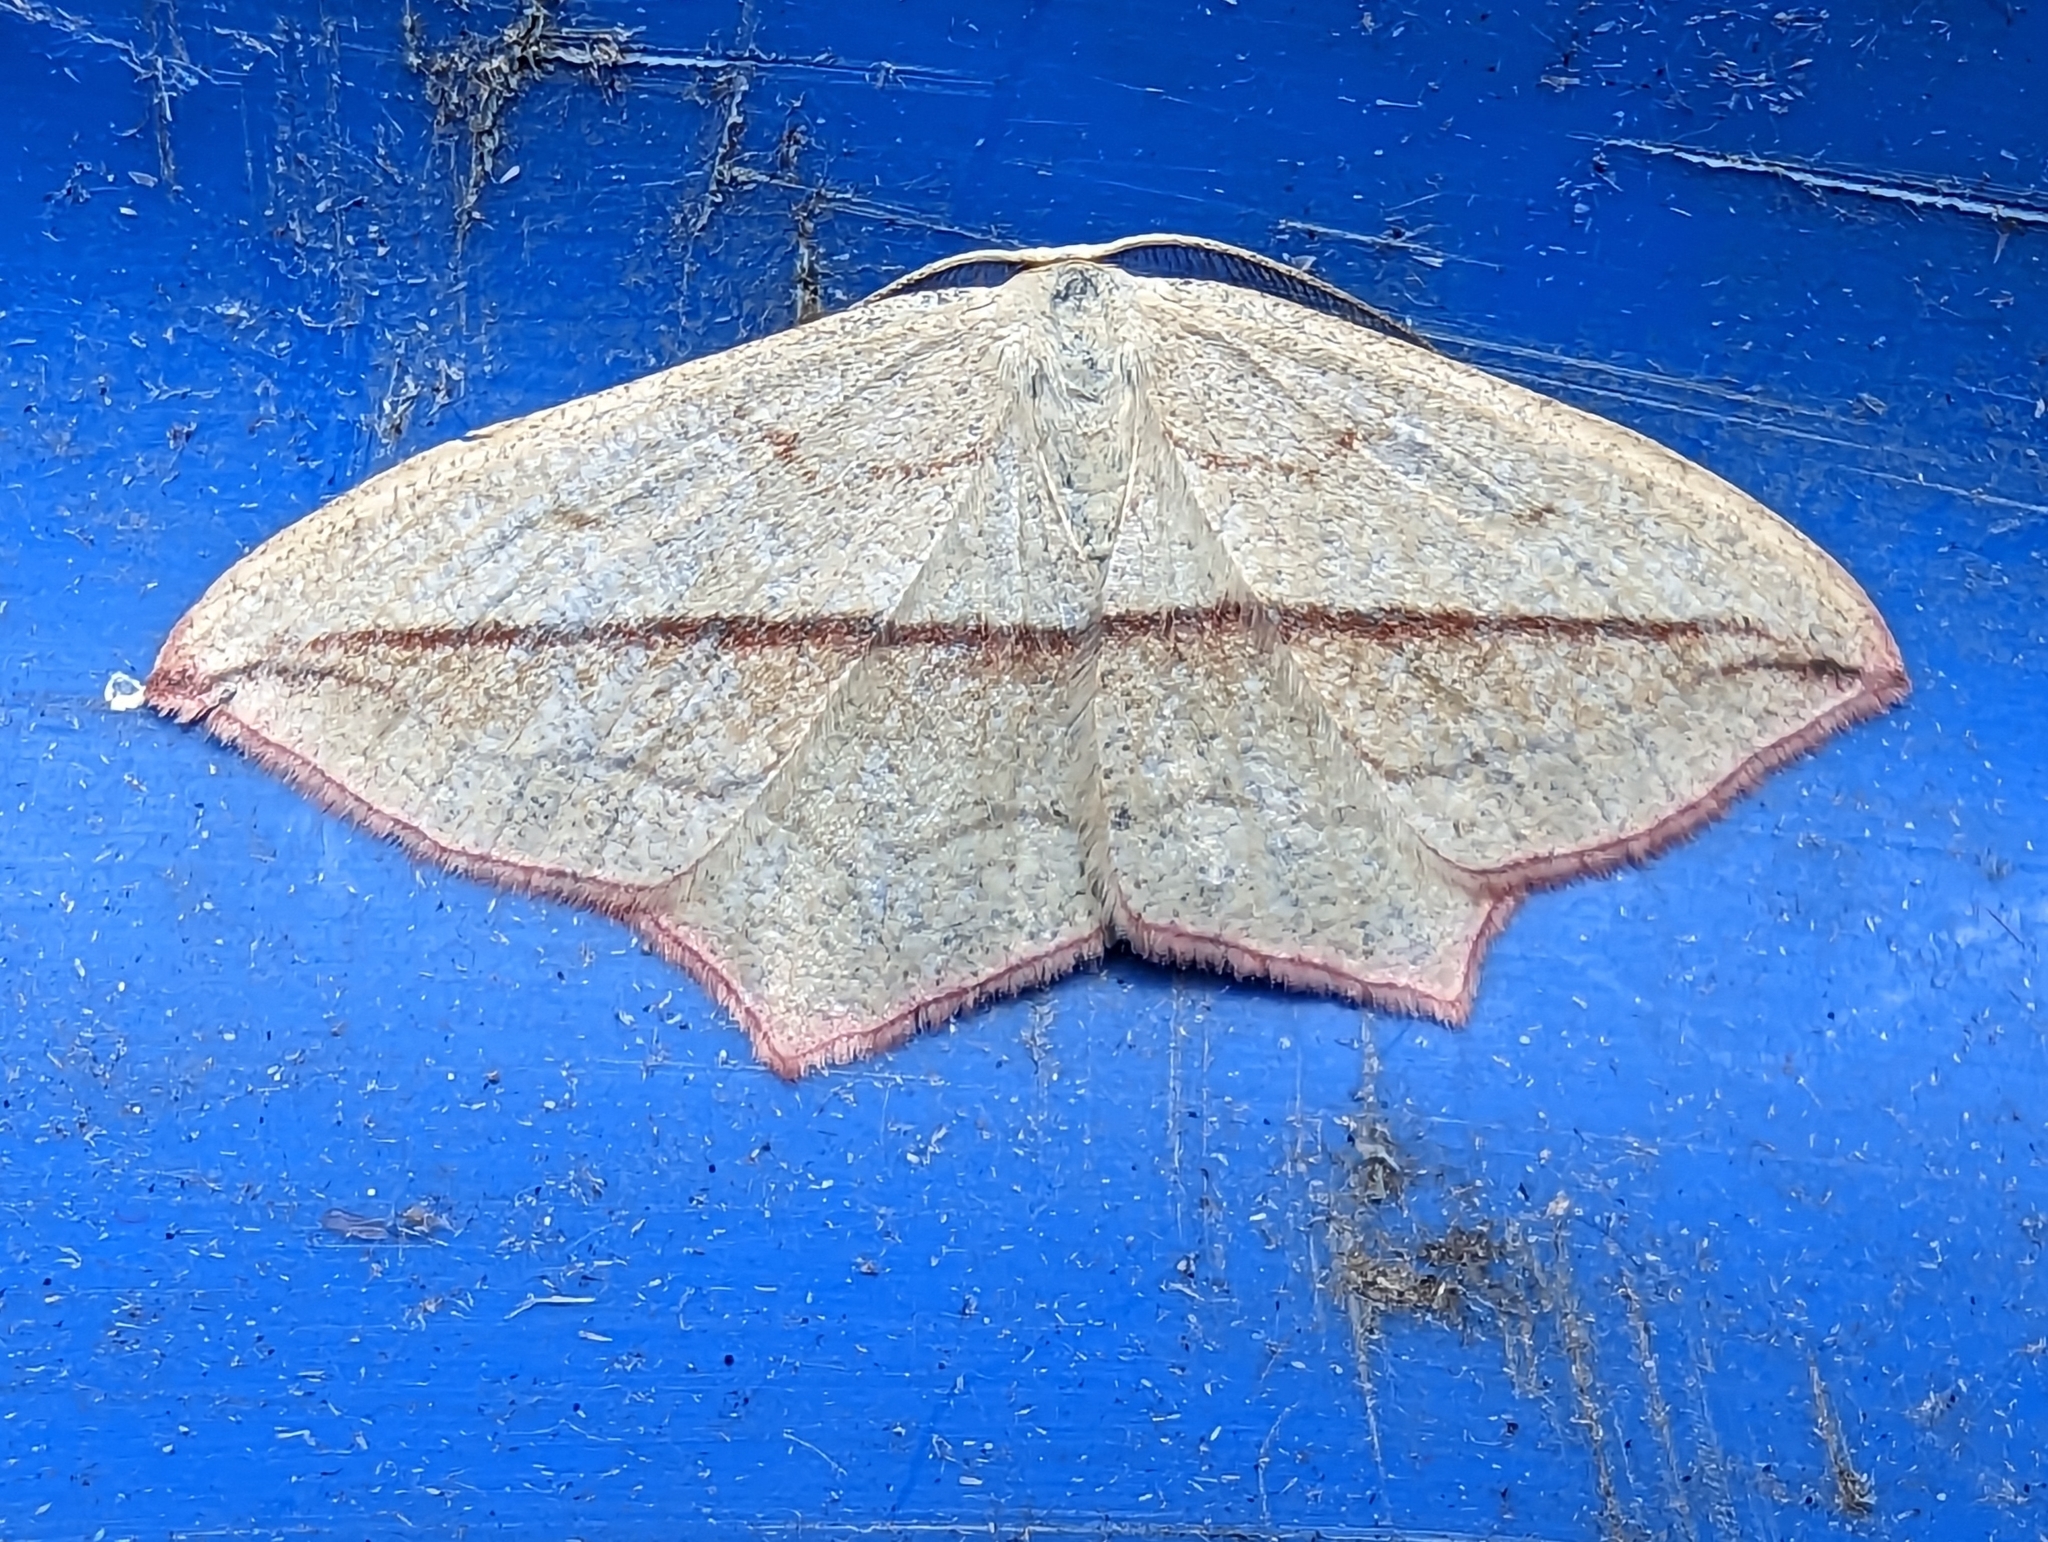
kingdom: Animalia
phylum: Arthropoda
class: Insecta
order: Lepidoptera
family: Geometridae
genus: Timandra
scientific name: Timandra comae
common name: Blood-vein
